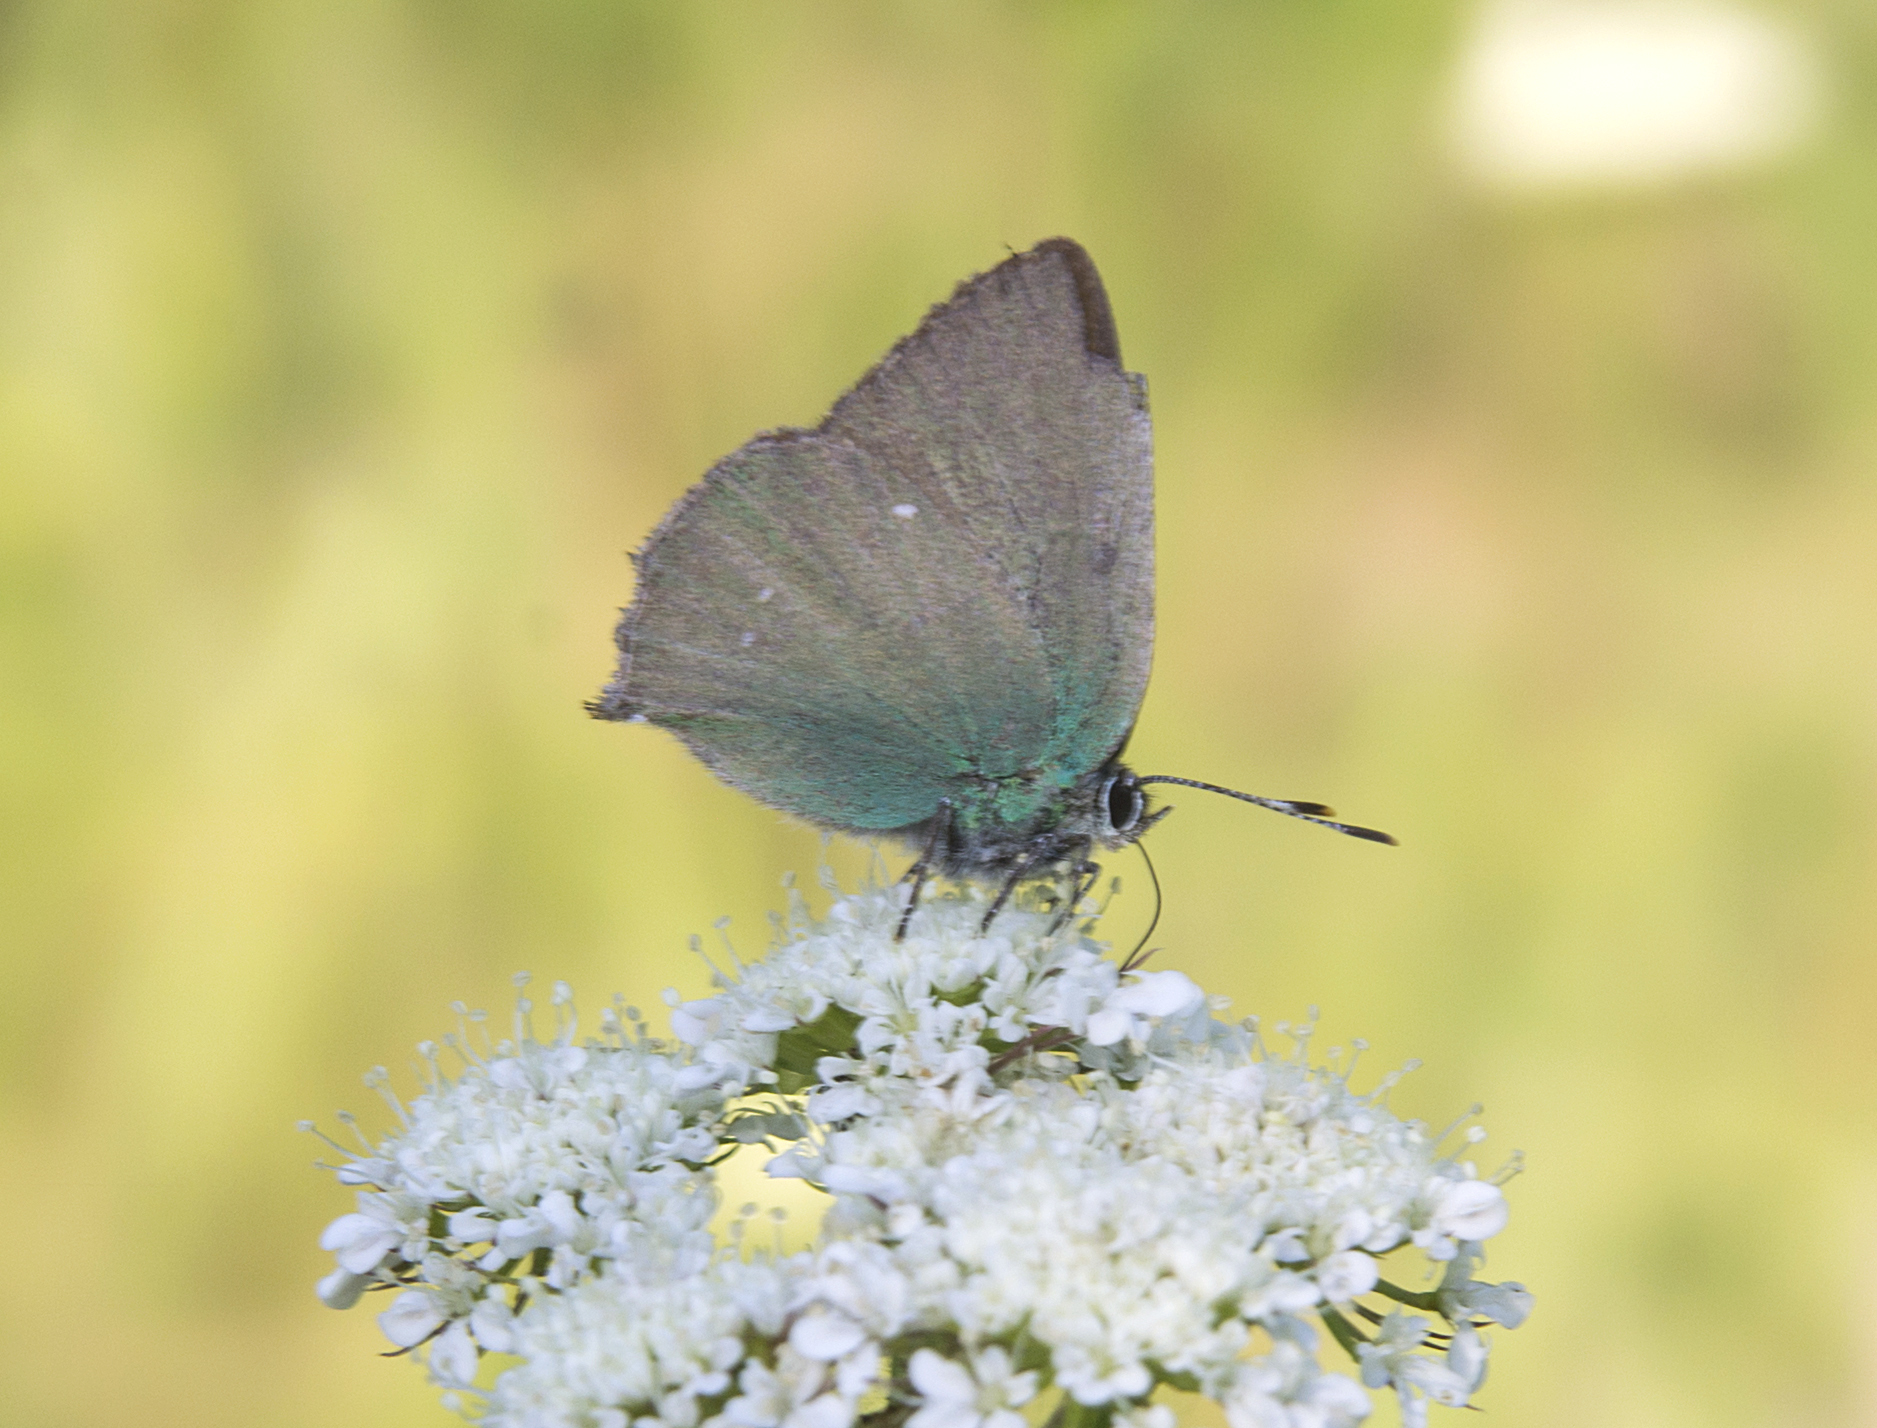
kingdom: Animalia
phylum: Arthropoda
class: Insecta
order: Lepidoptera
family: Lycaenidae
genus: Callophrys
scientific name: Callophrys rubi
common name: Green hairstreak
